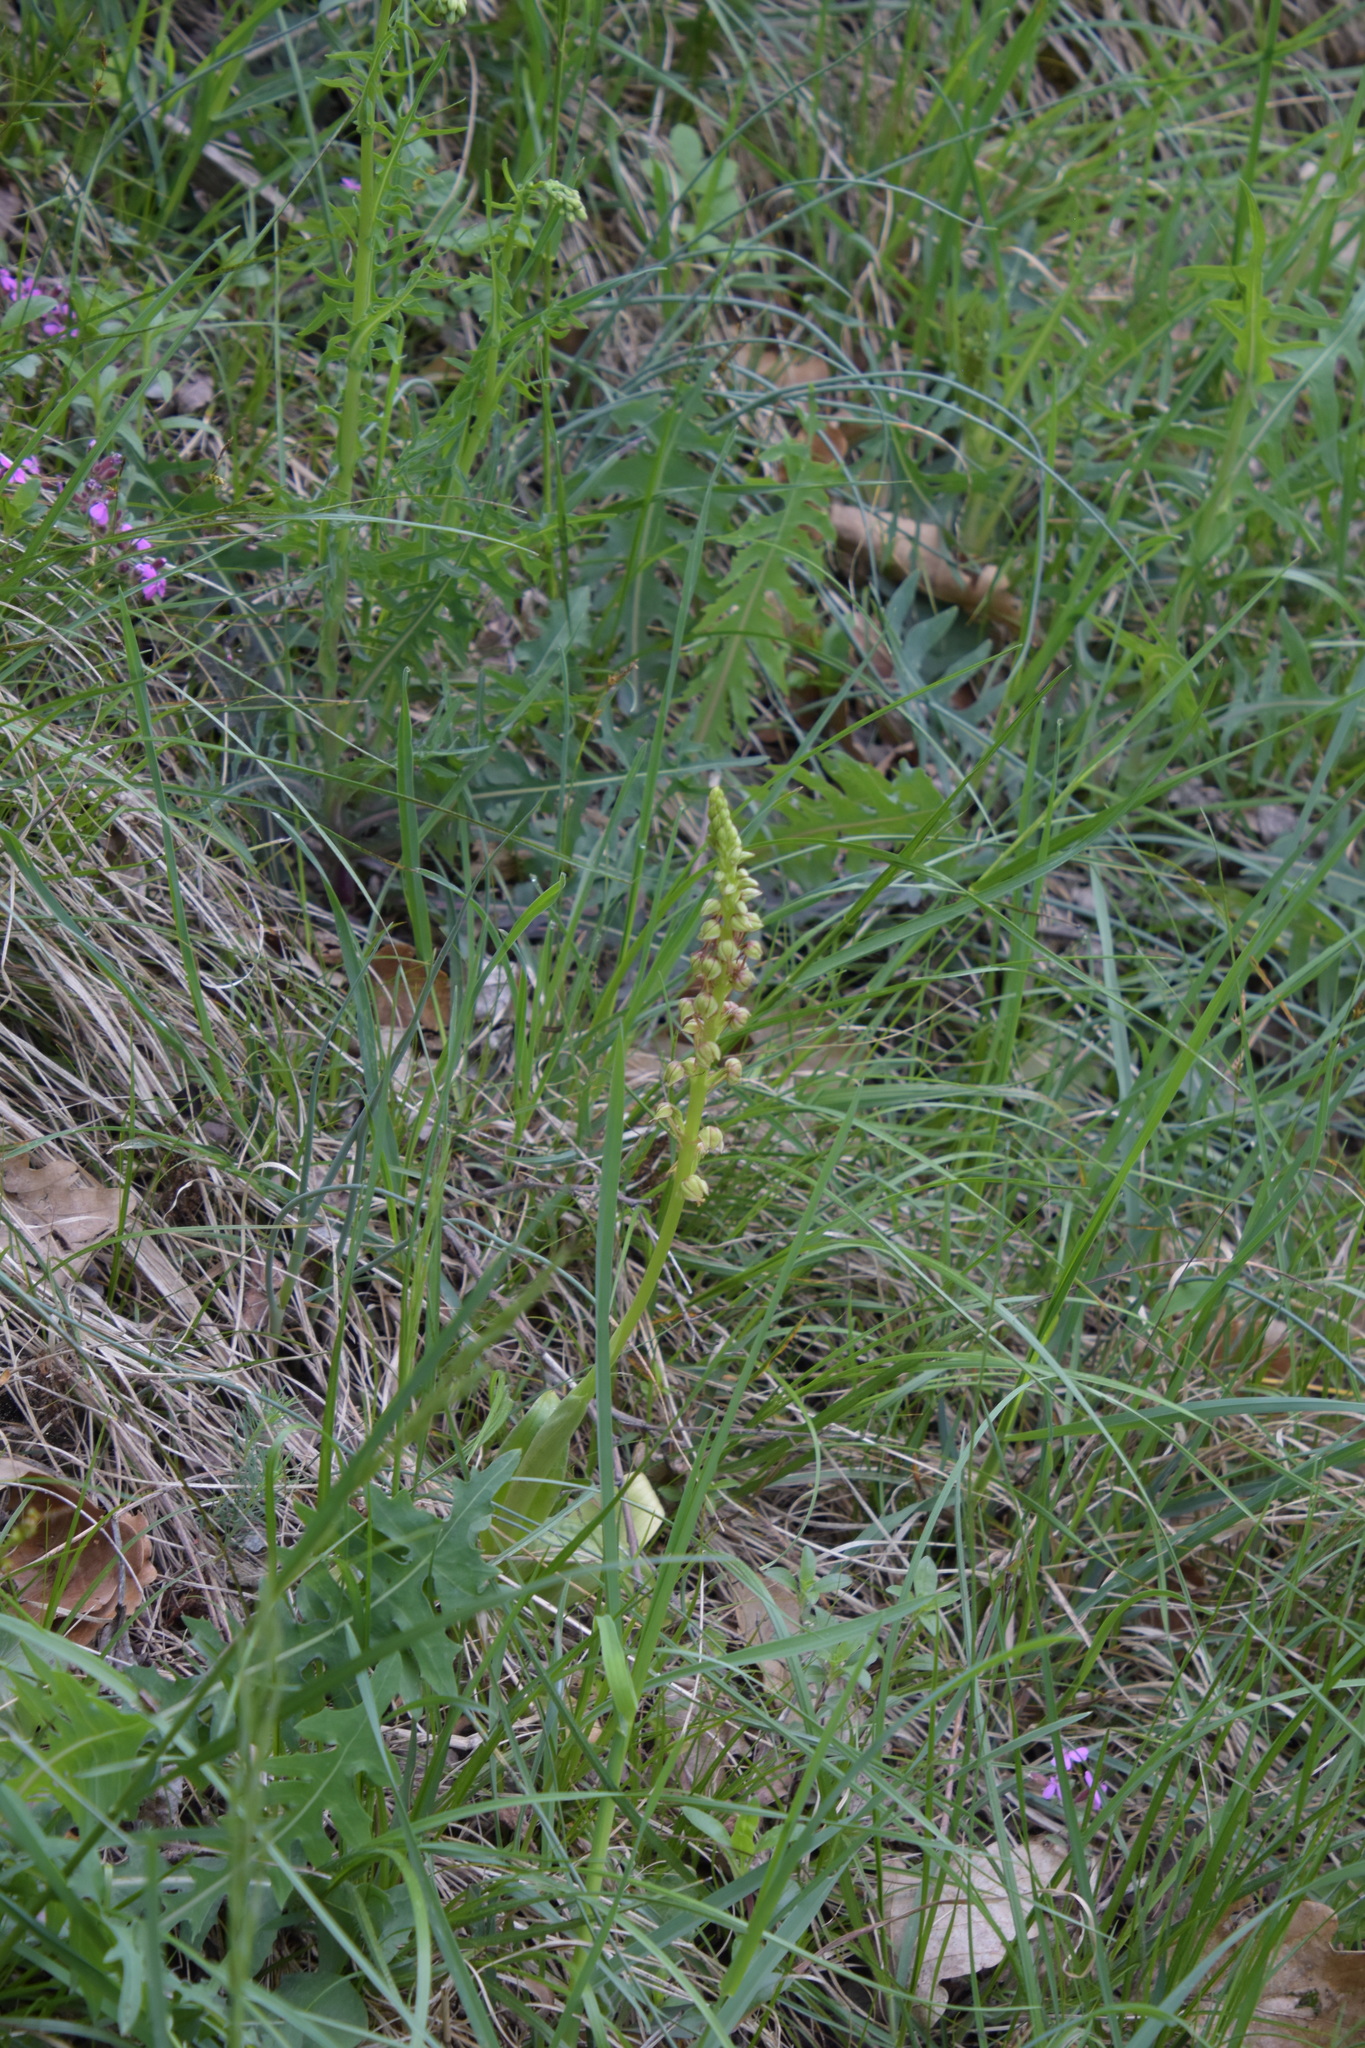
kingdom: Plantae
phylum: Tracheophyta
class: Liliopsida
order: Asparagales
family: Orchidaceae
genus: Orchis
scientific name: Orchis anthropophora
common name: Man orchid
